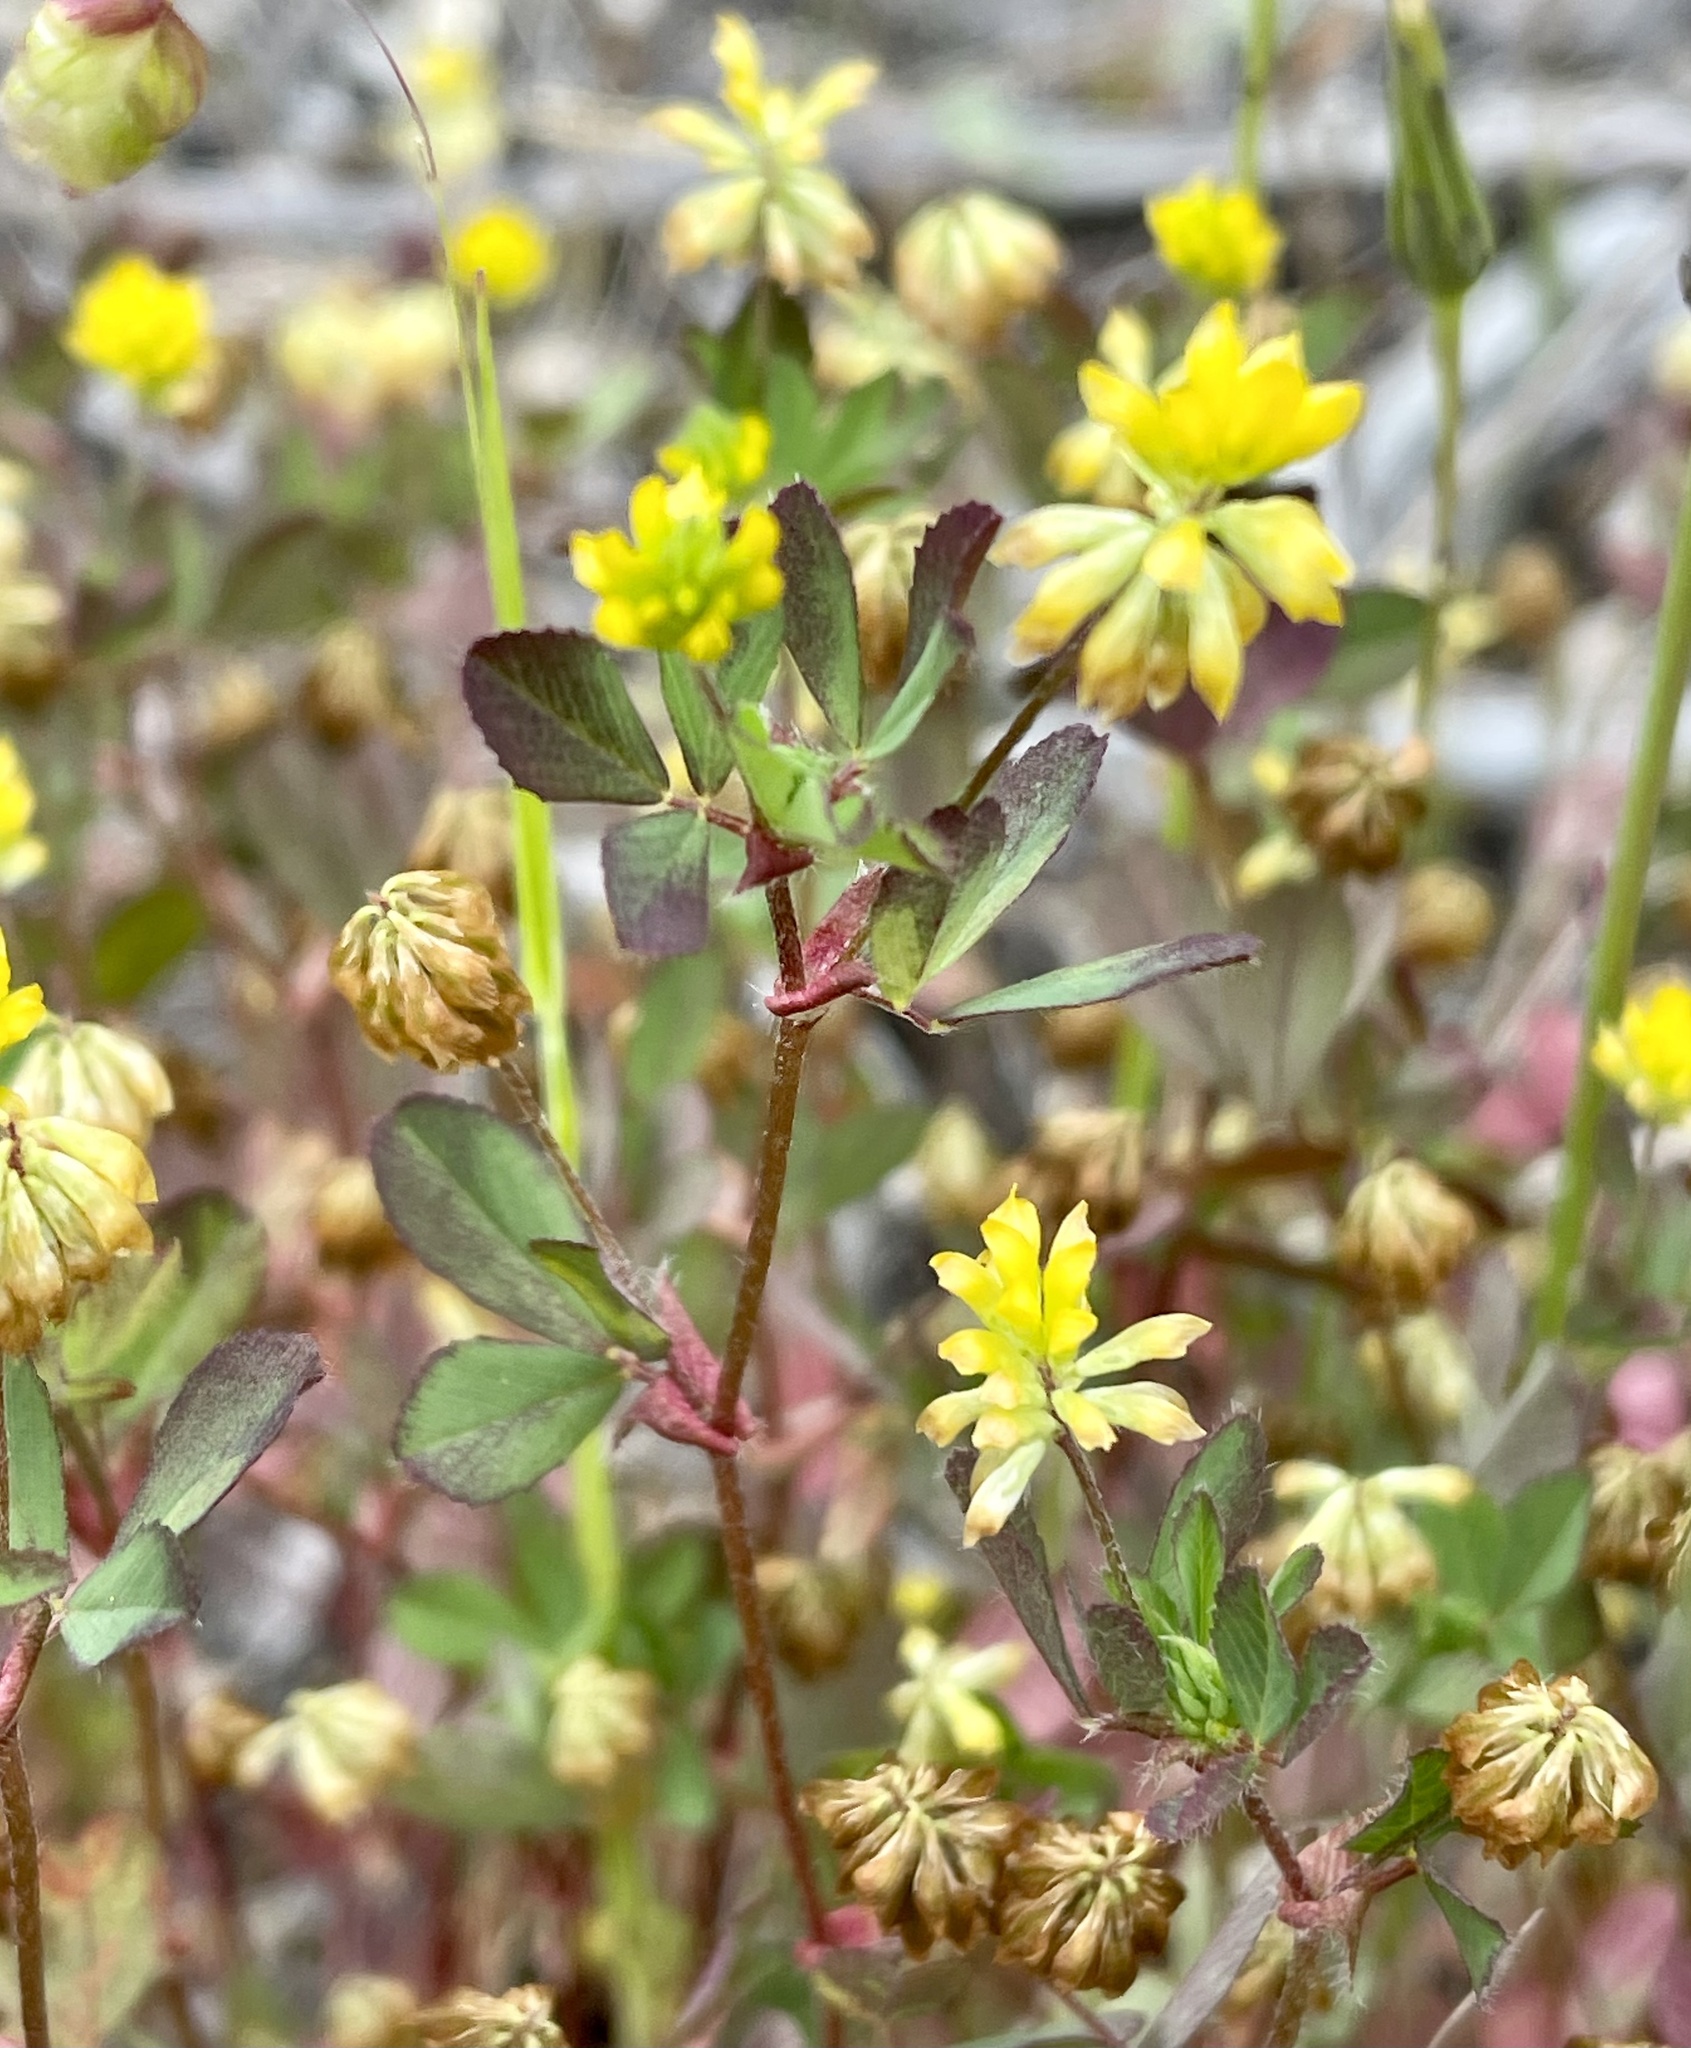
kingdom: Plantae
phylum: Tracheophyta
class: Magnoliopsida
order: Fabales
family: Fabaceae
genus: Trifolium
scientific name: Trifolium dubium
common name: Suckling clover
